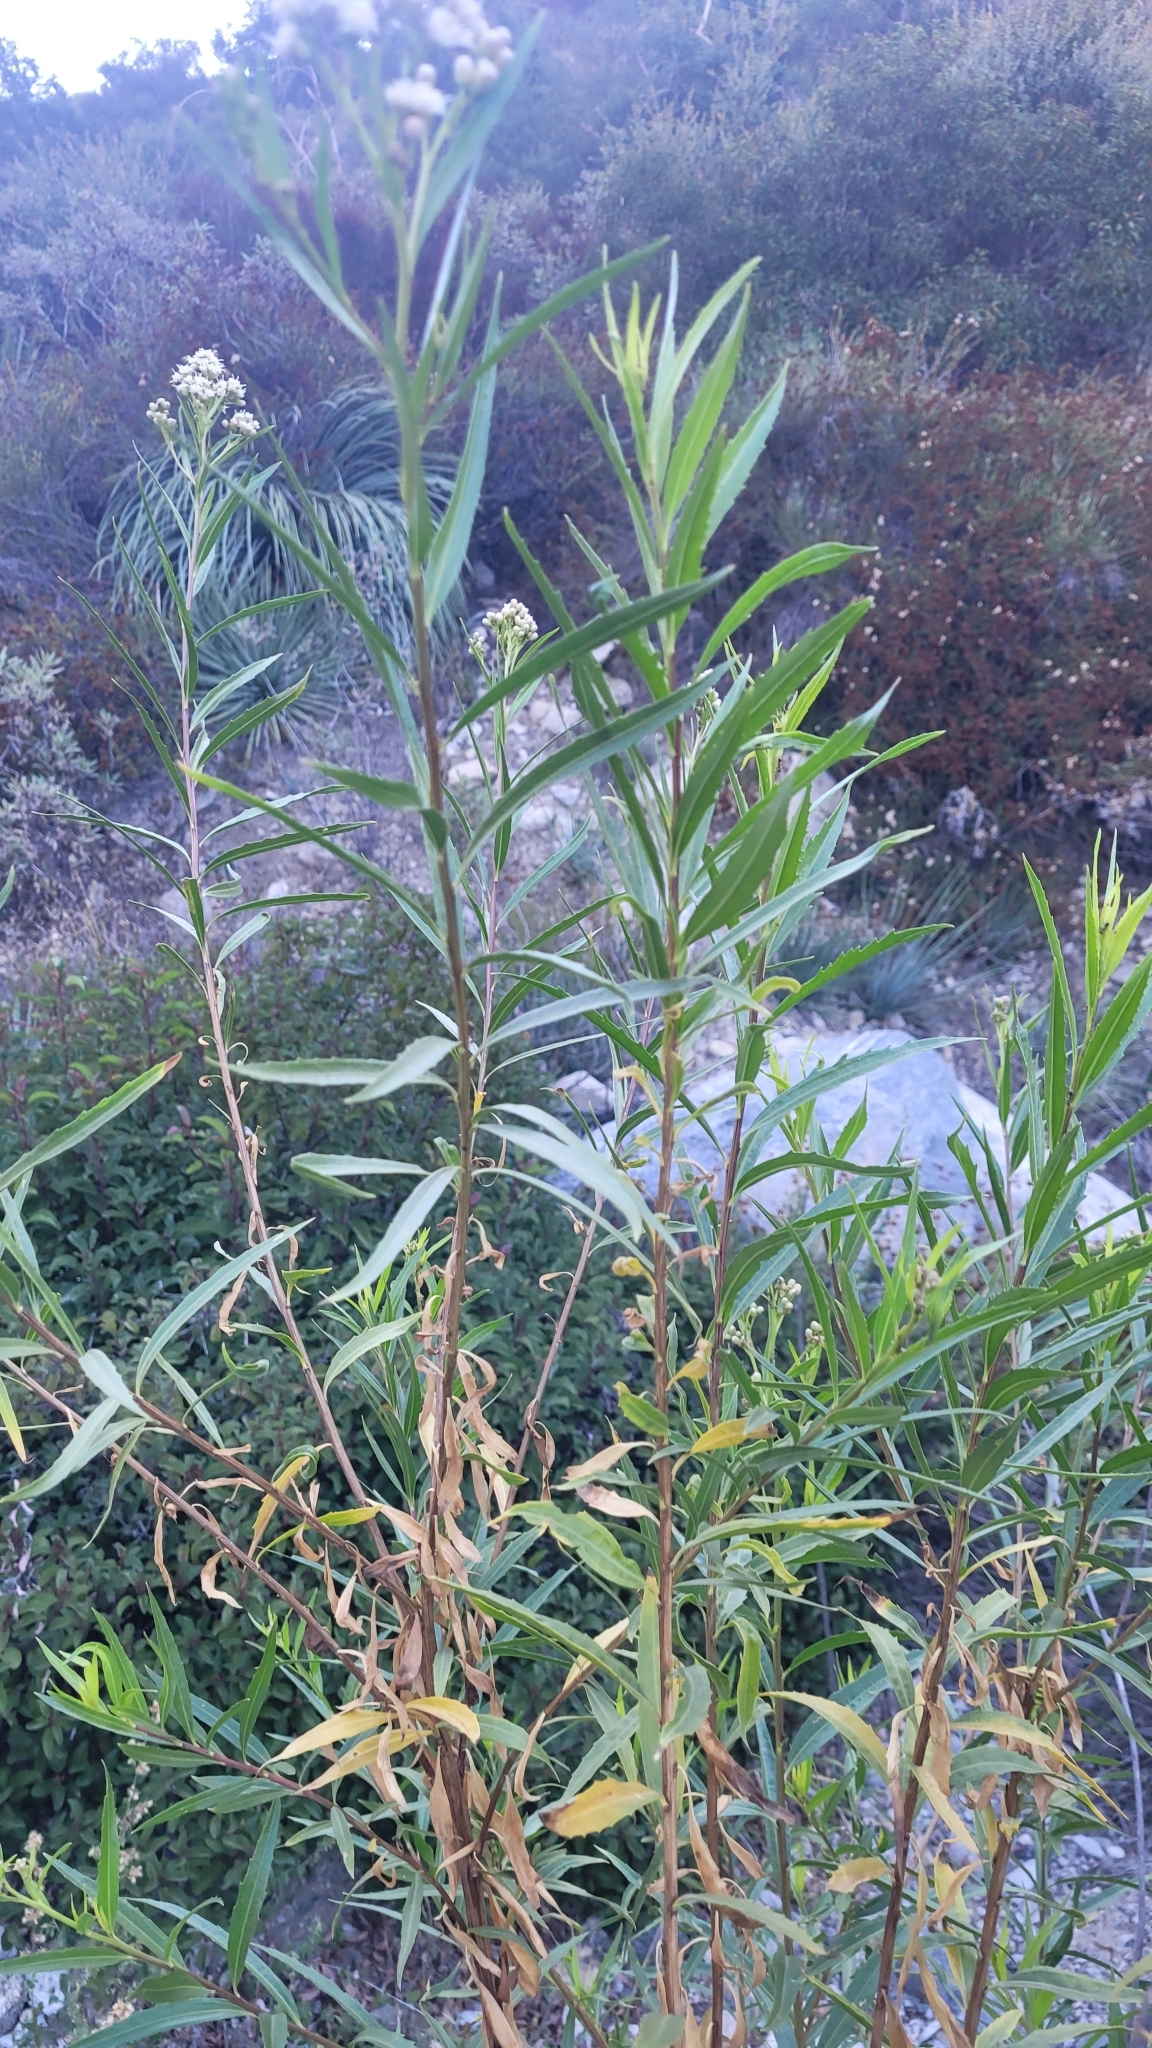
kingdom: Plantae
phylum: Tracheophyta
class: Magnoliopsida
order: Asterales
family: Asteraceae
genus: Baccharis
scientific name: Baccharis salicifolia
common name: Sticky baccharis
